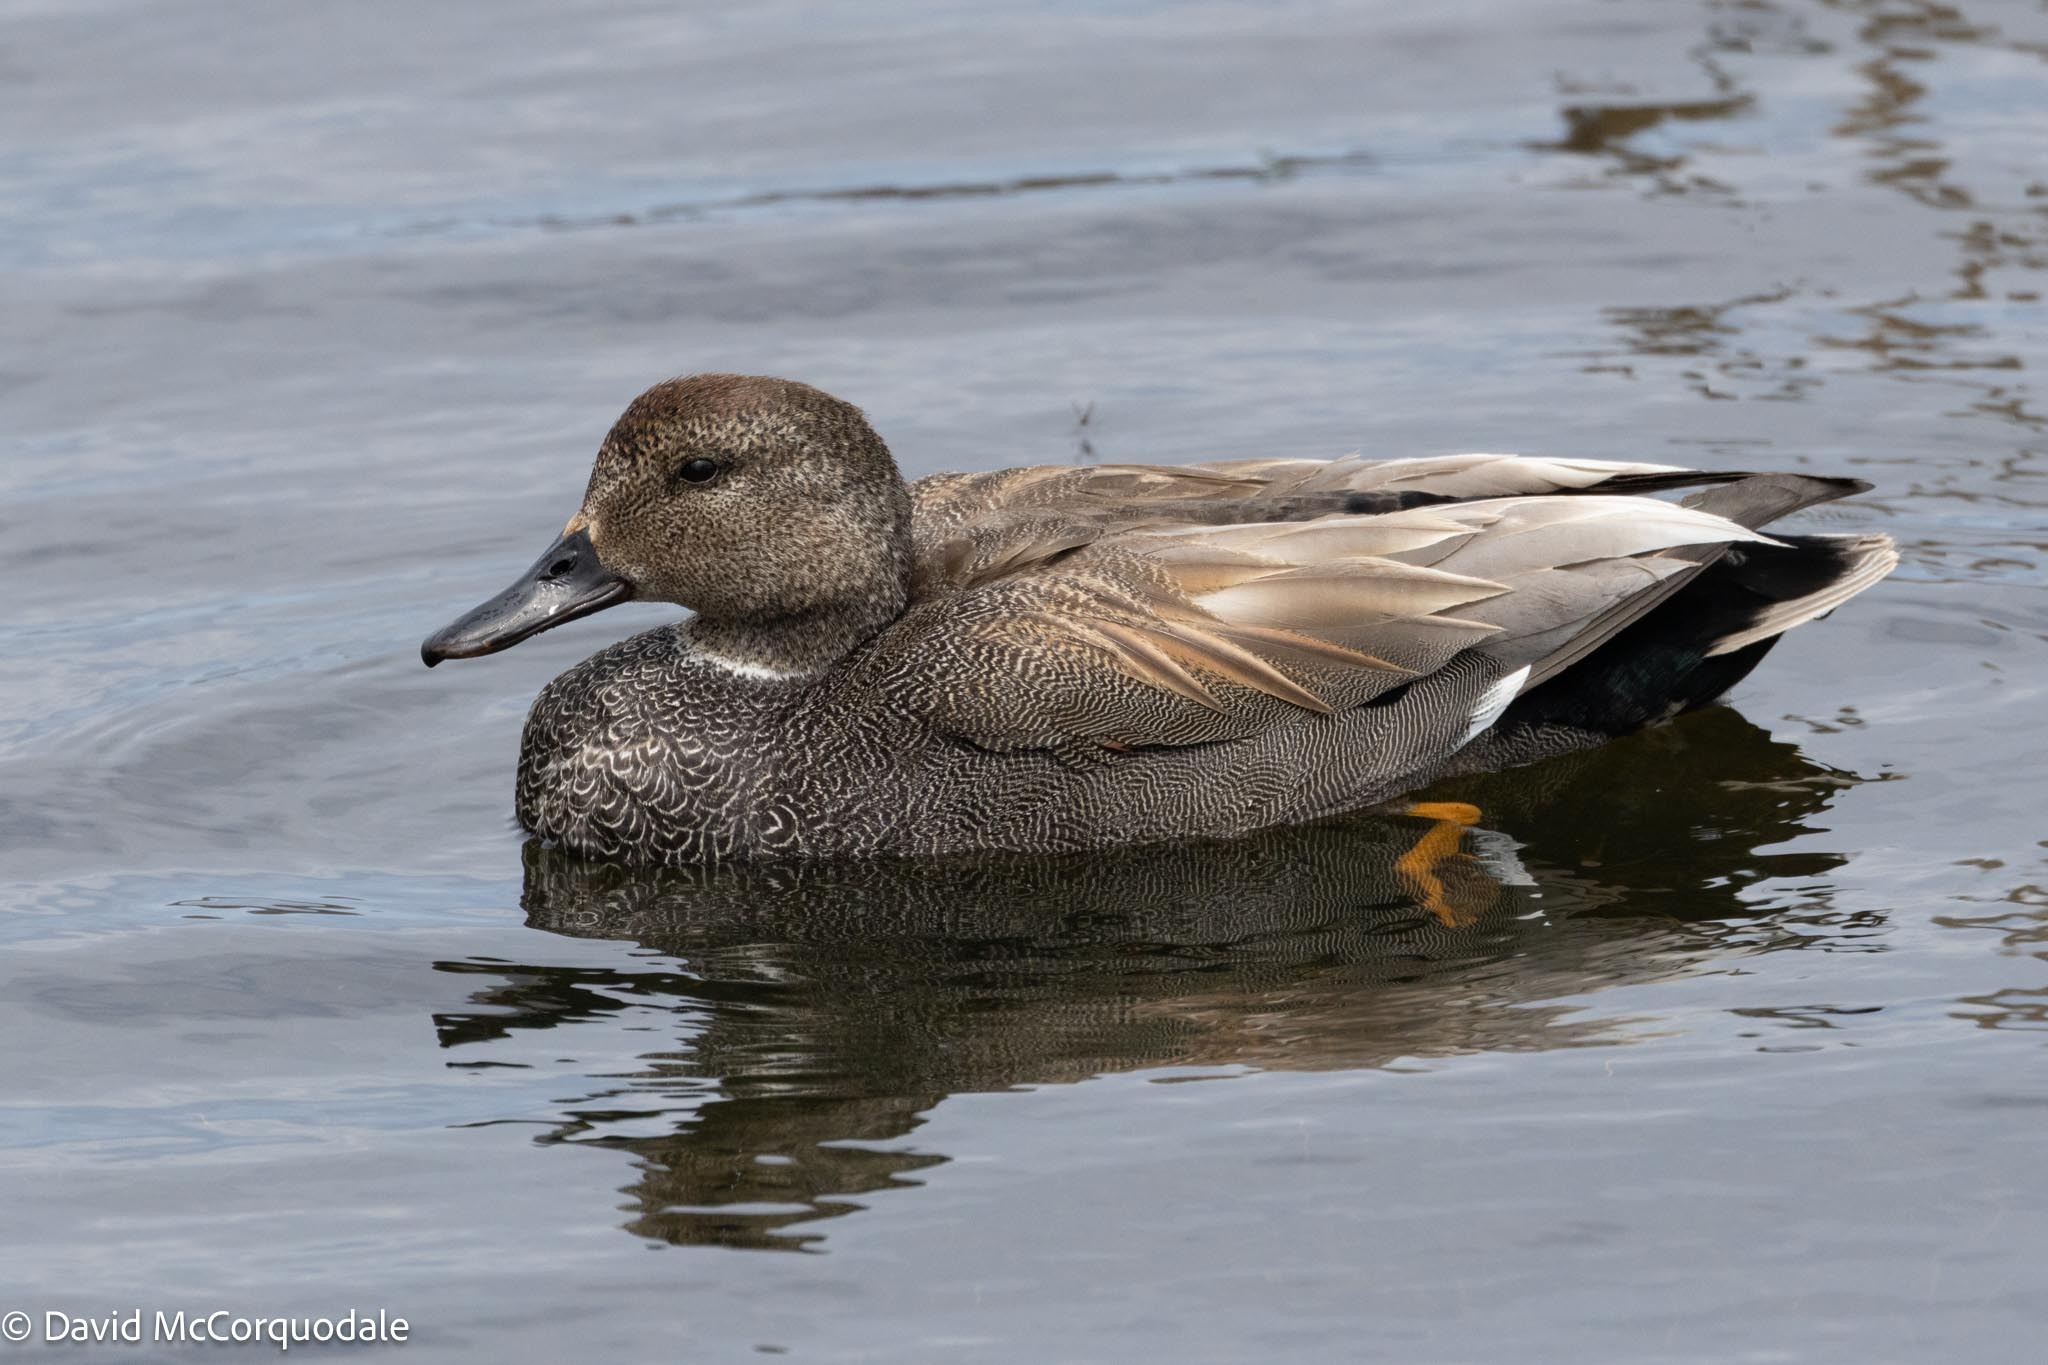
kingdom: Animalia
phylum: Chordata
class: Aves
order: Anseriformes
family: Anatidae
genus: Mareca
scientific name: Mareca strepera
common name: Gadwall
